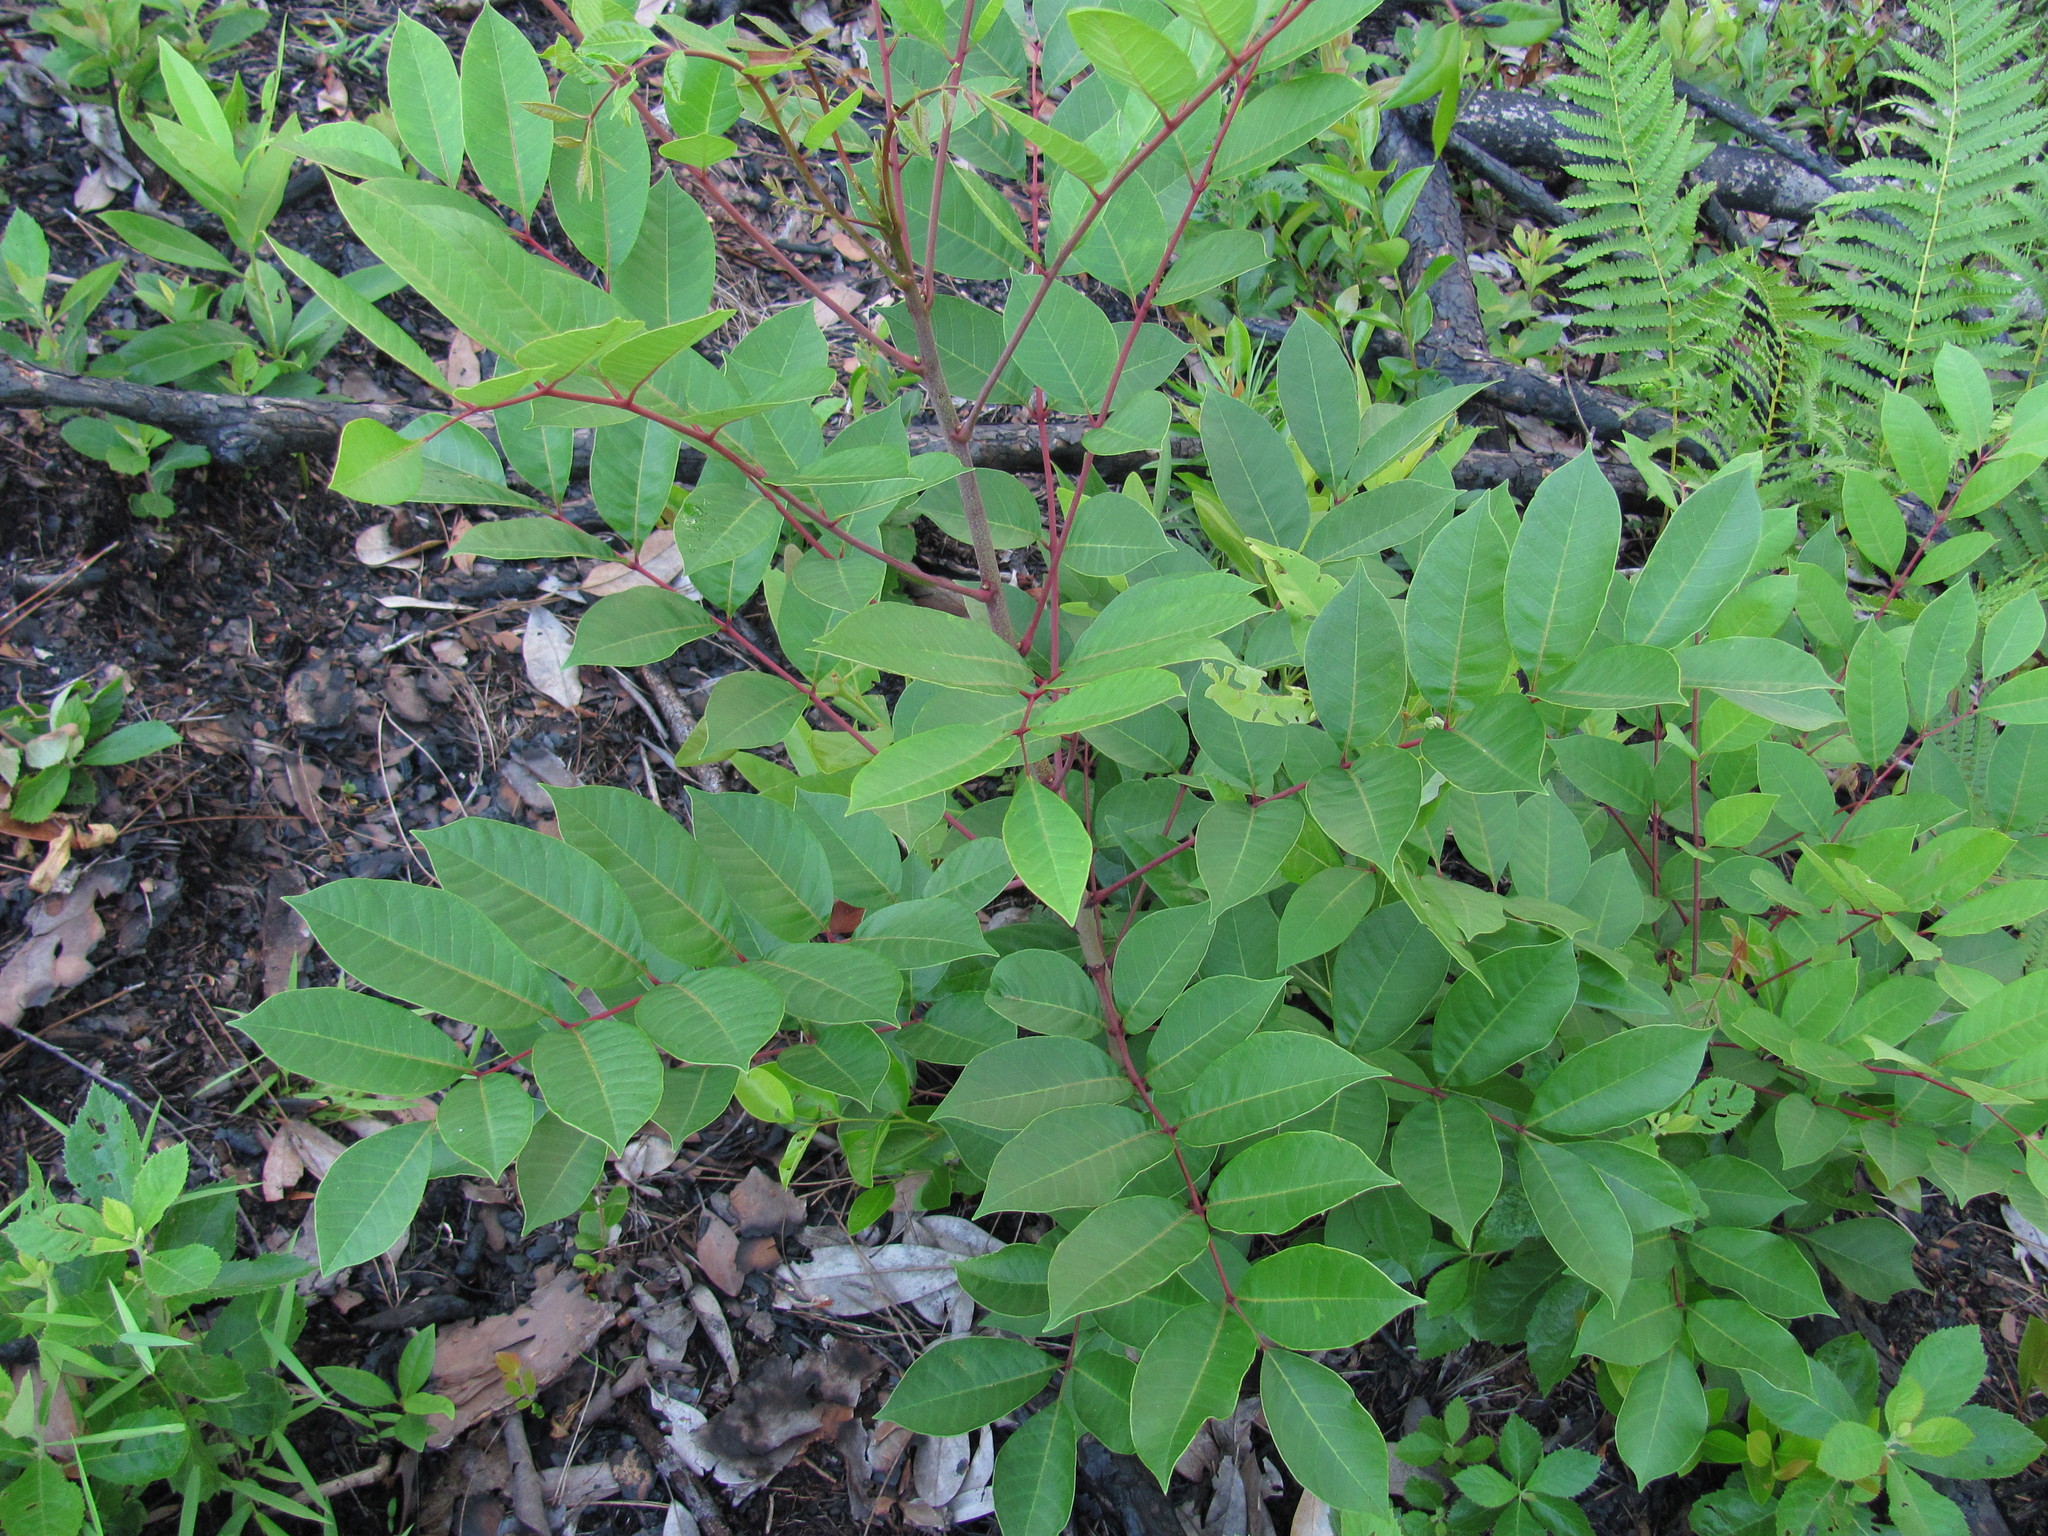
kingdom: Plantae
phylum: Tracheophyta
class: Magnoliopsida
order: Sapindales
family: Anacardiaceae
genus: Toxicodendron
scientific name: Toxicodendron vernix
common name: Poison sumac
